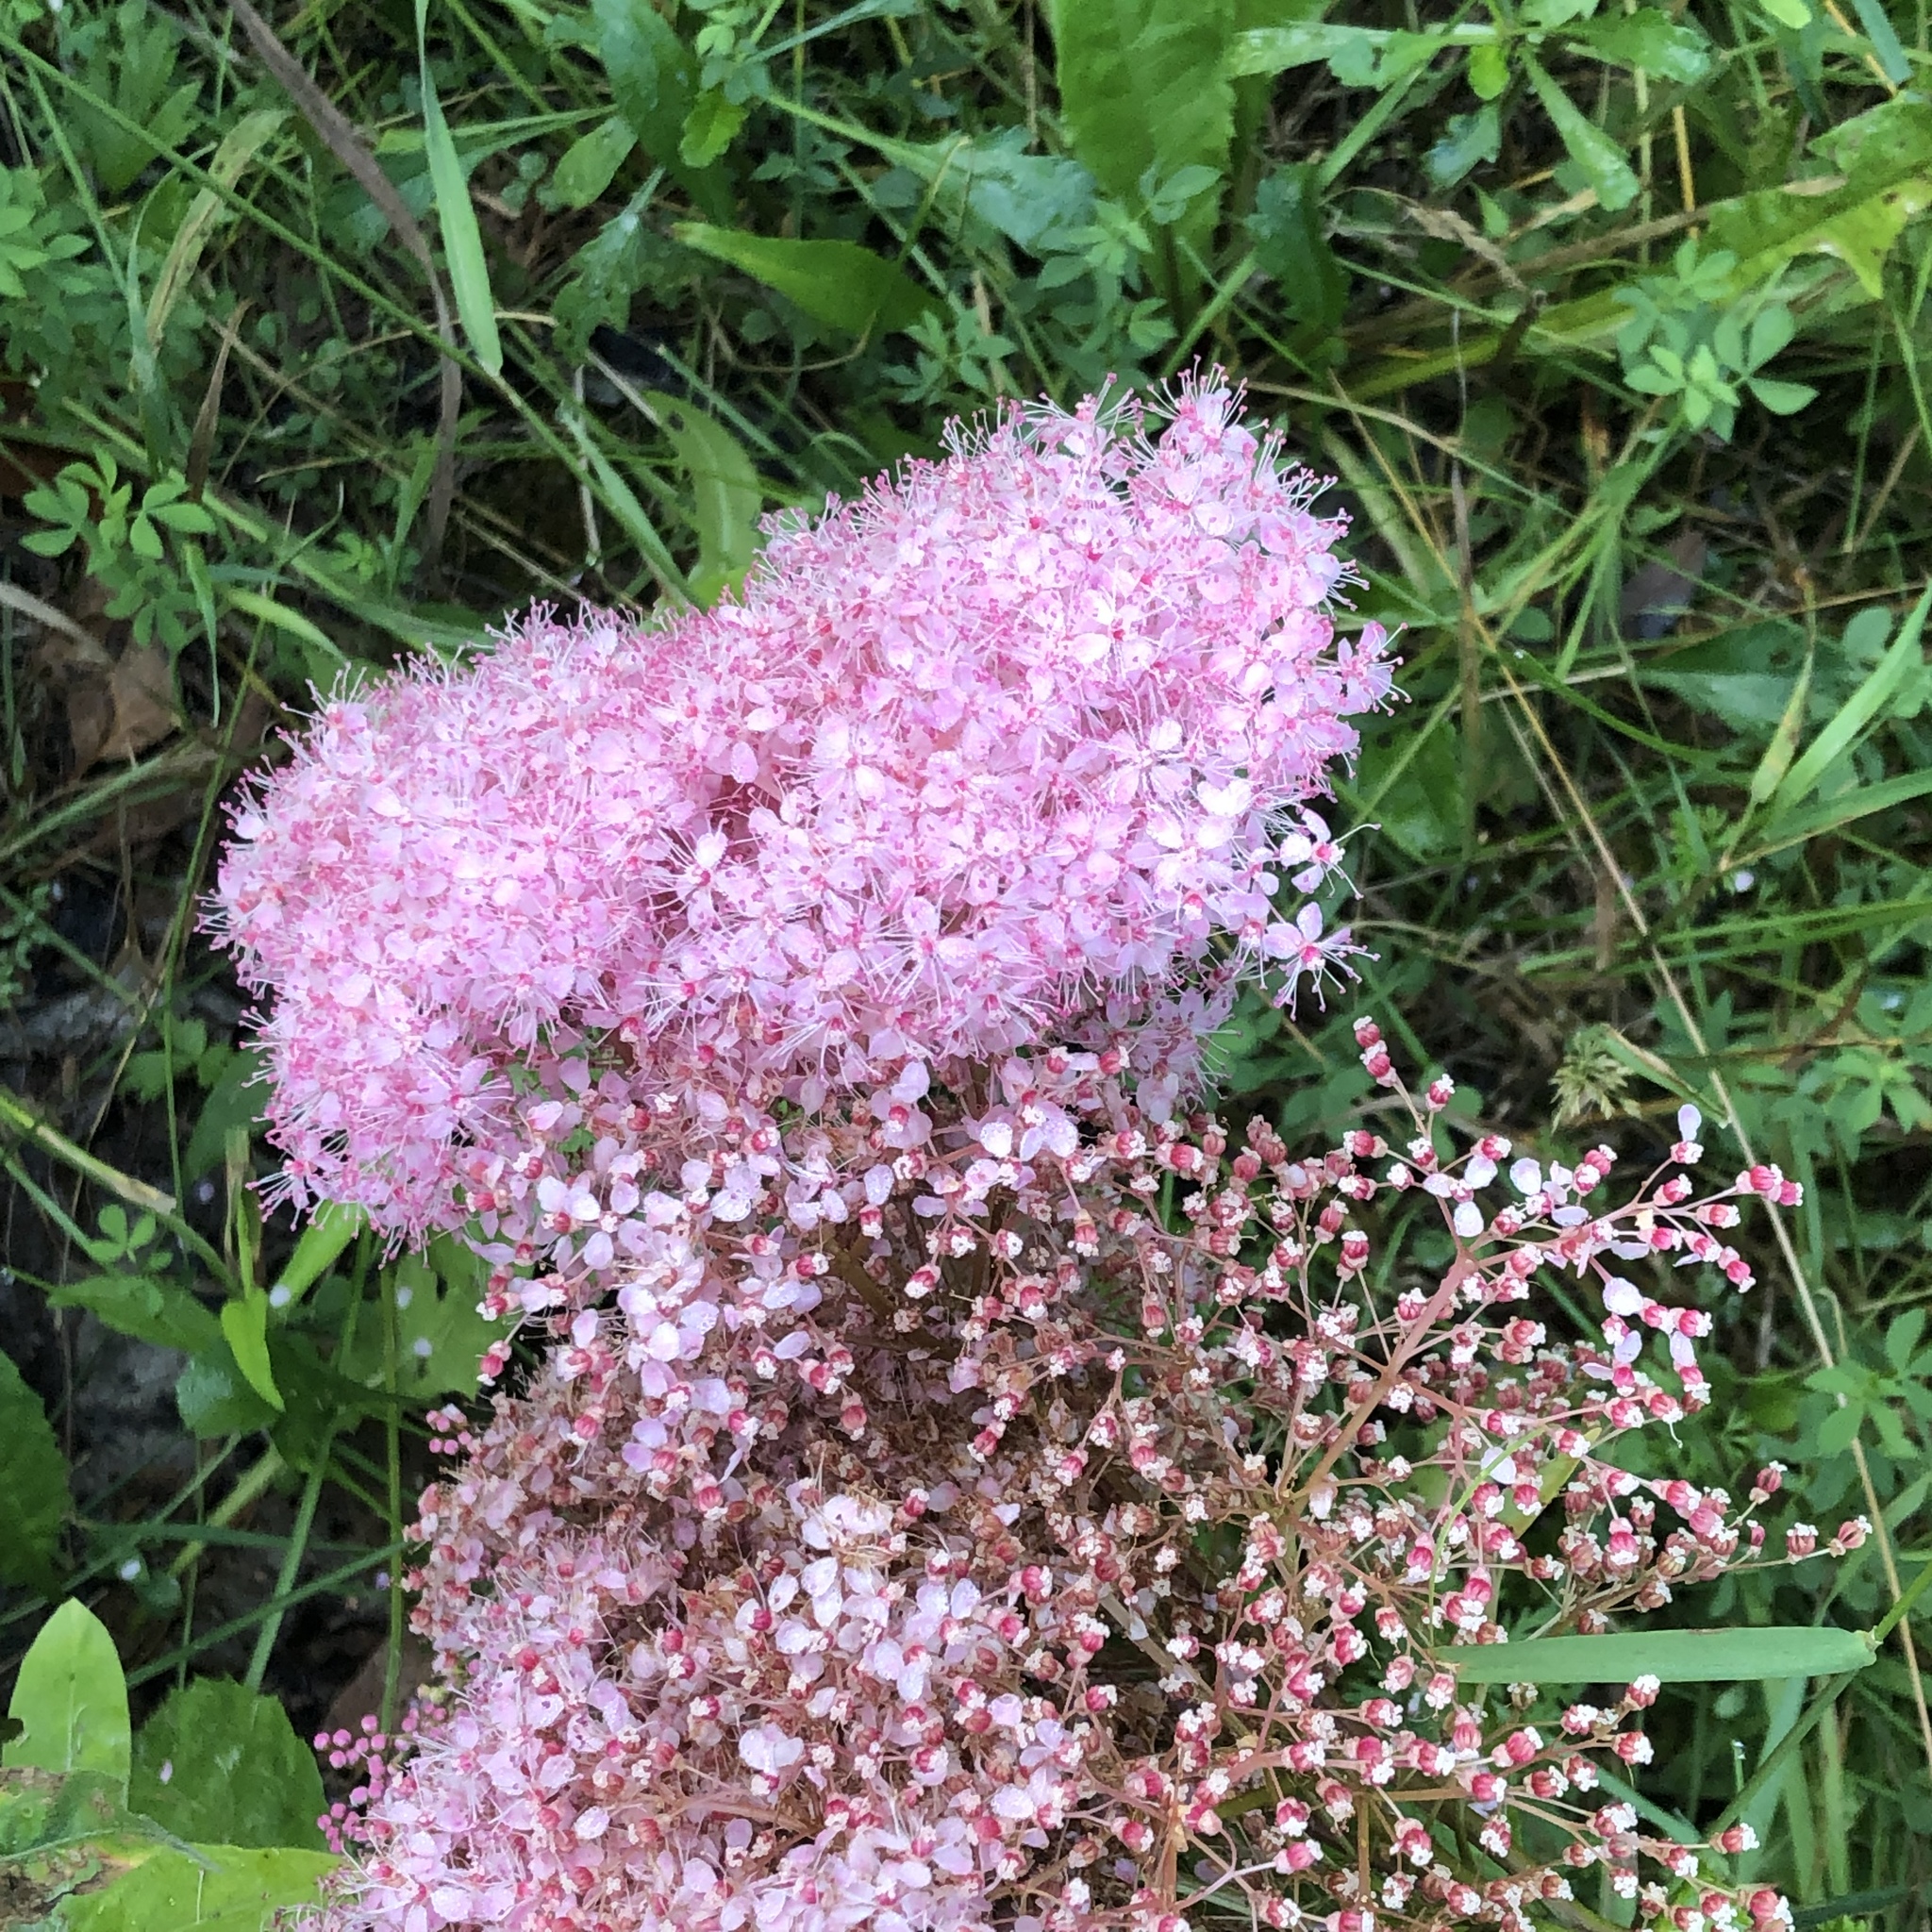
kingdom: Plantae
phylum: Tracheophyta
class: Magnoliopsida
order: Rosales
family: Rosaceae
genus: Filipendula
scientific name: Filipendula rubra
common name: Queen-of-the-prairie
